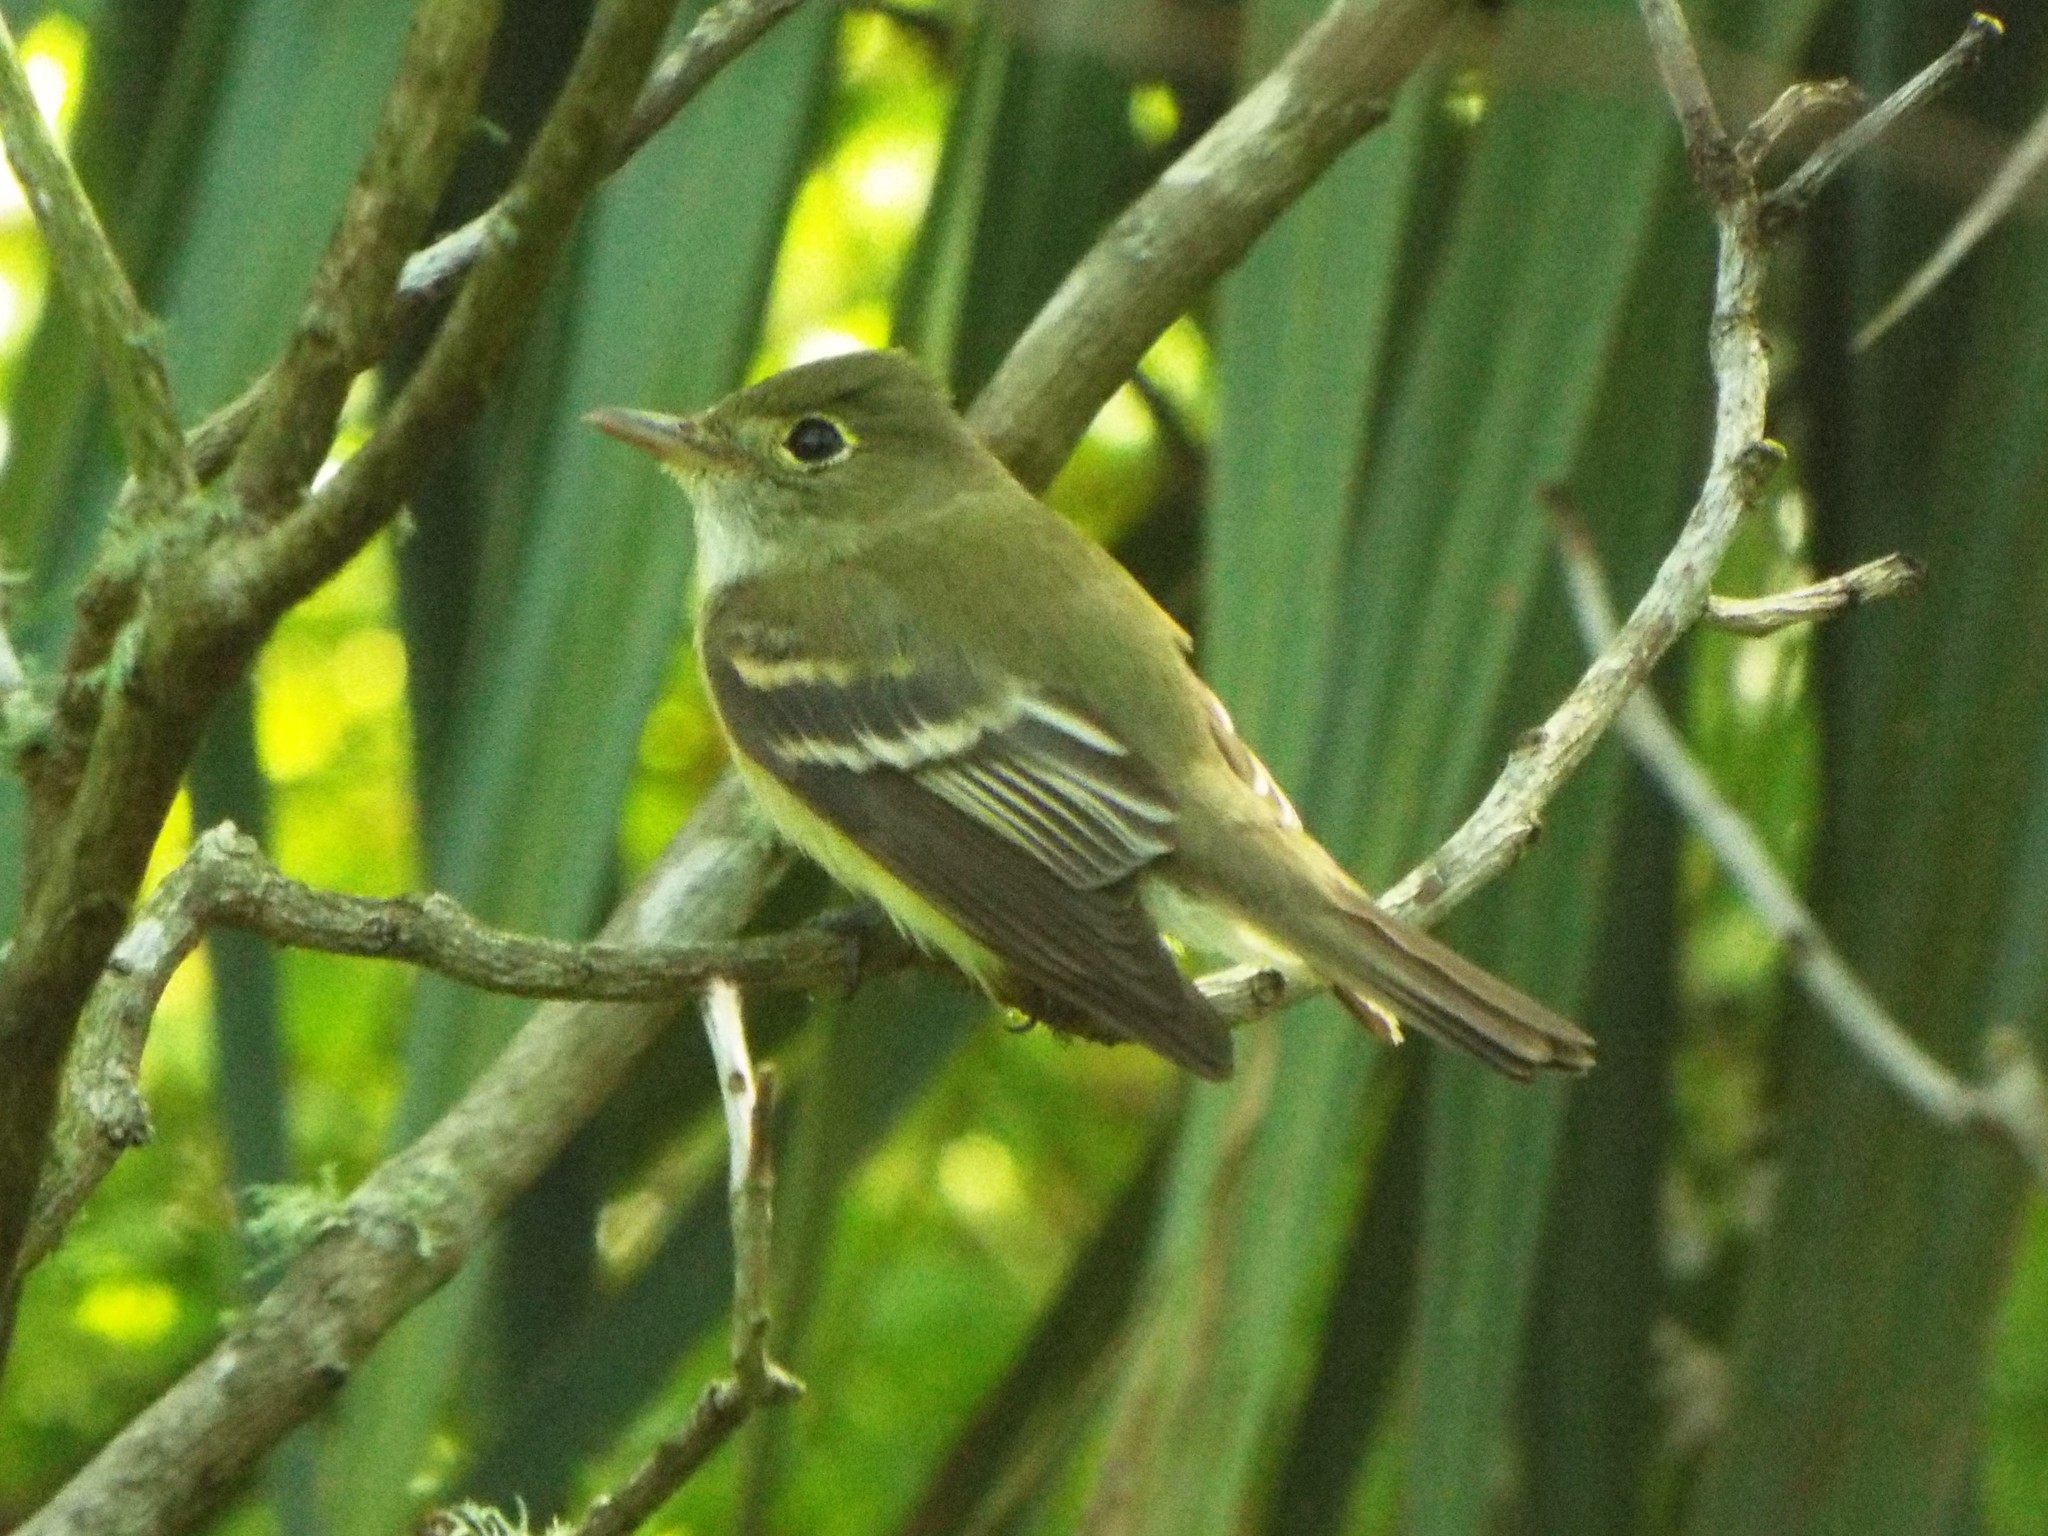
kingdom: Animalia
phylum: Chordata
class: Aves
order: Passeriformes
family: Tyrannidae
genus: Empidonax
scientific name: Empidonax virescens
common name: Acadian flycatcher
